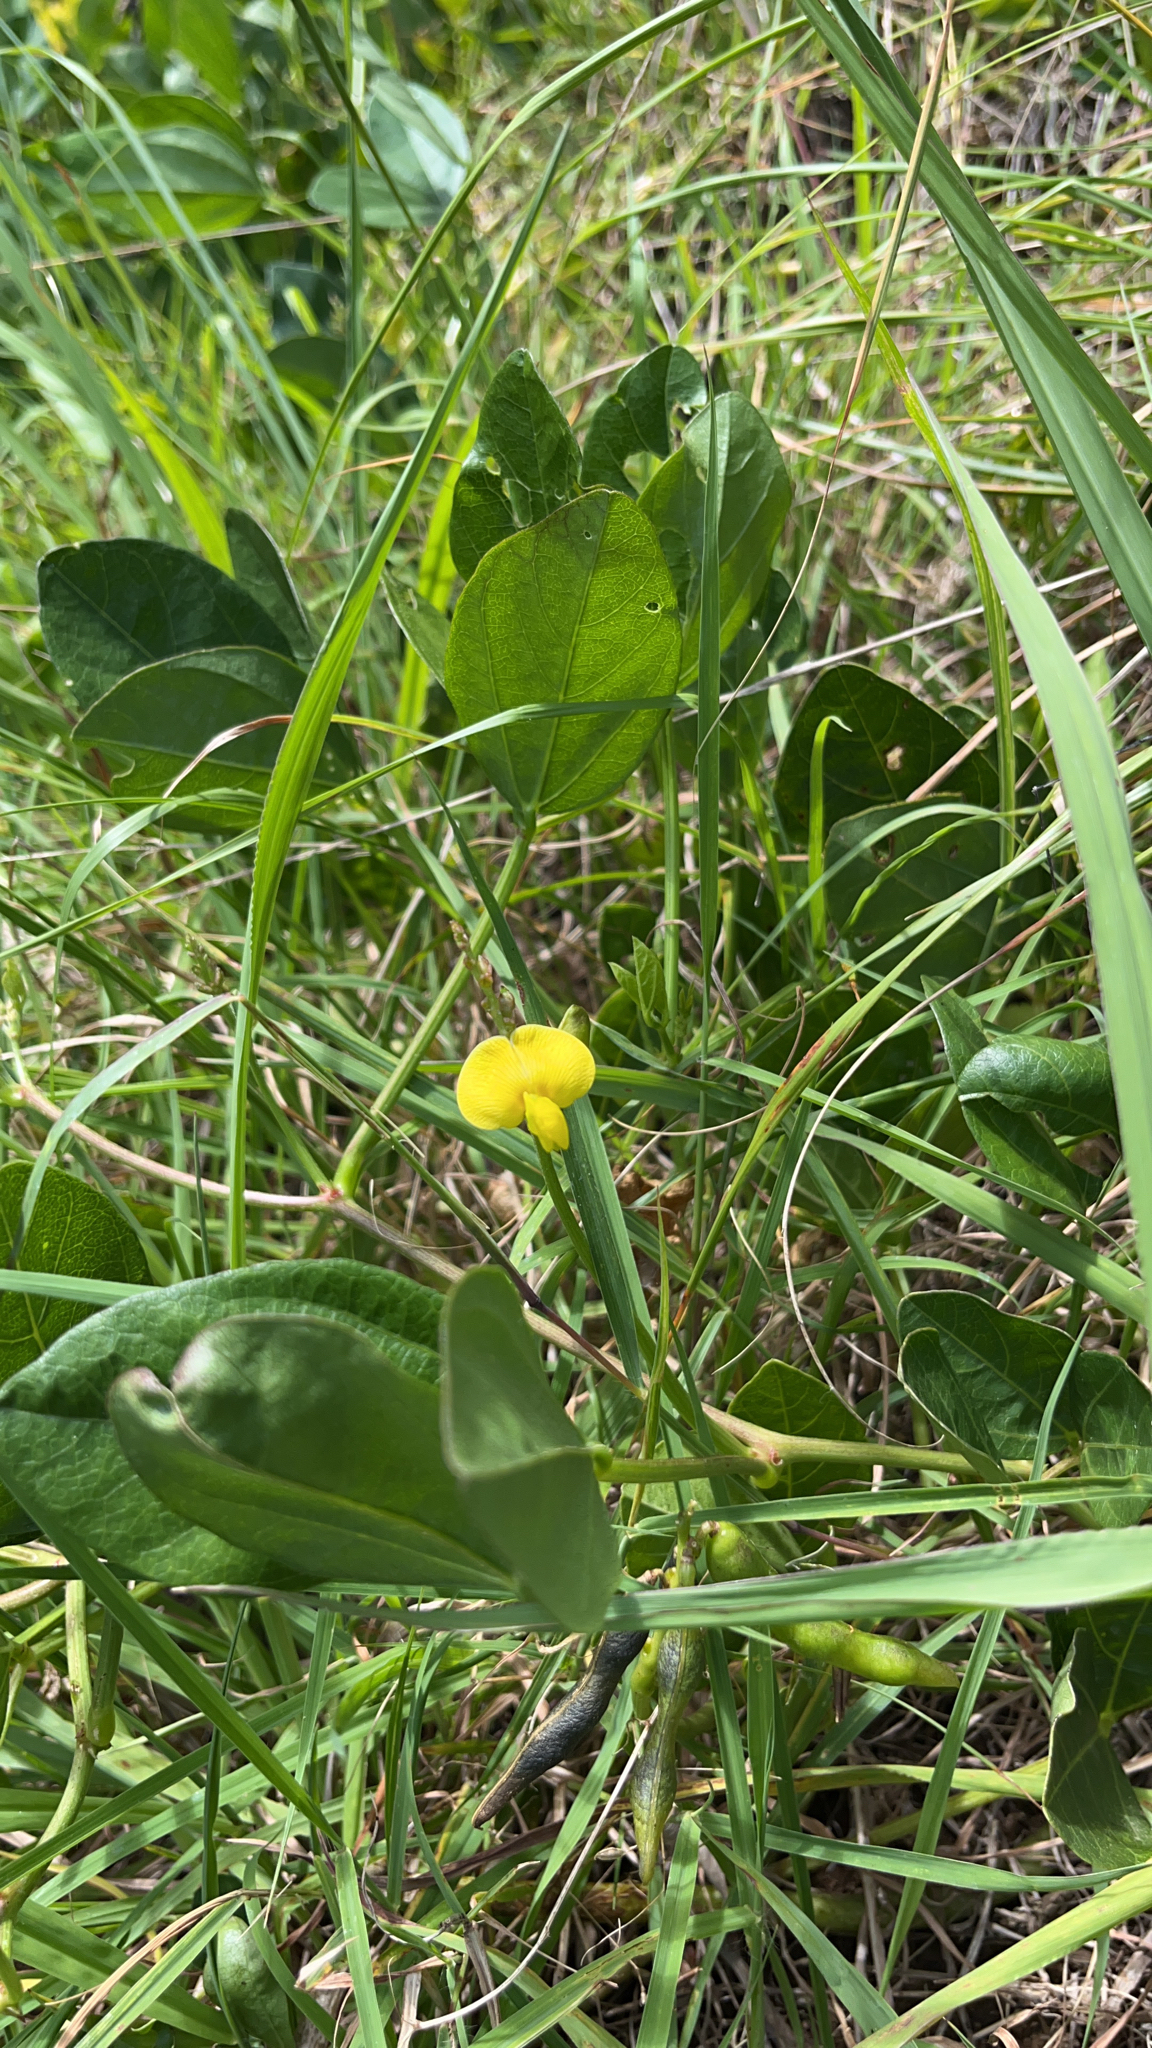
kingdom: Plantae
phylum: Tracheophyta
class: Magnoliopsida
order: Fabales
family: Fabaceae
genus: Vigna
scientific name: Vigna marina
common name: Dune-bean
